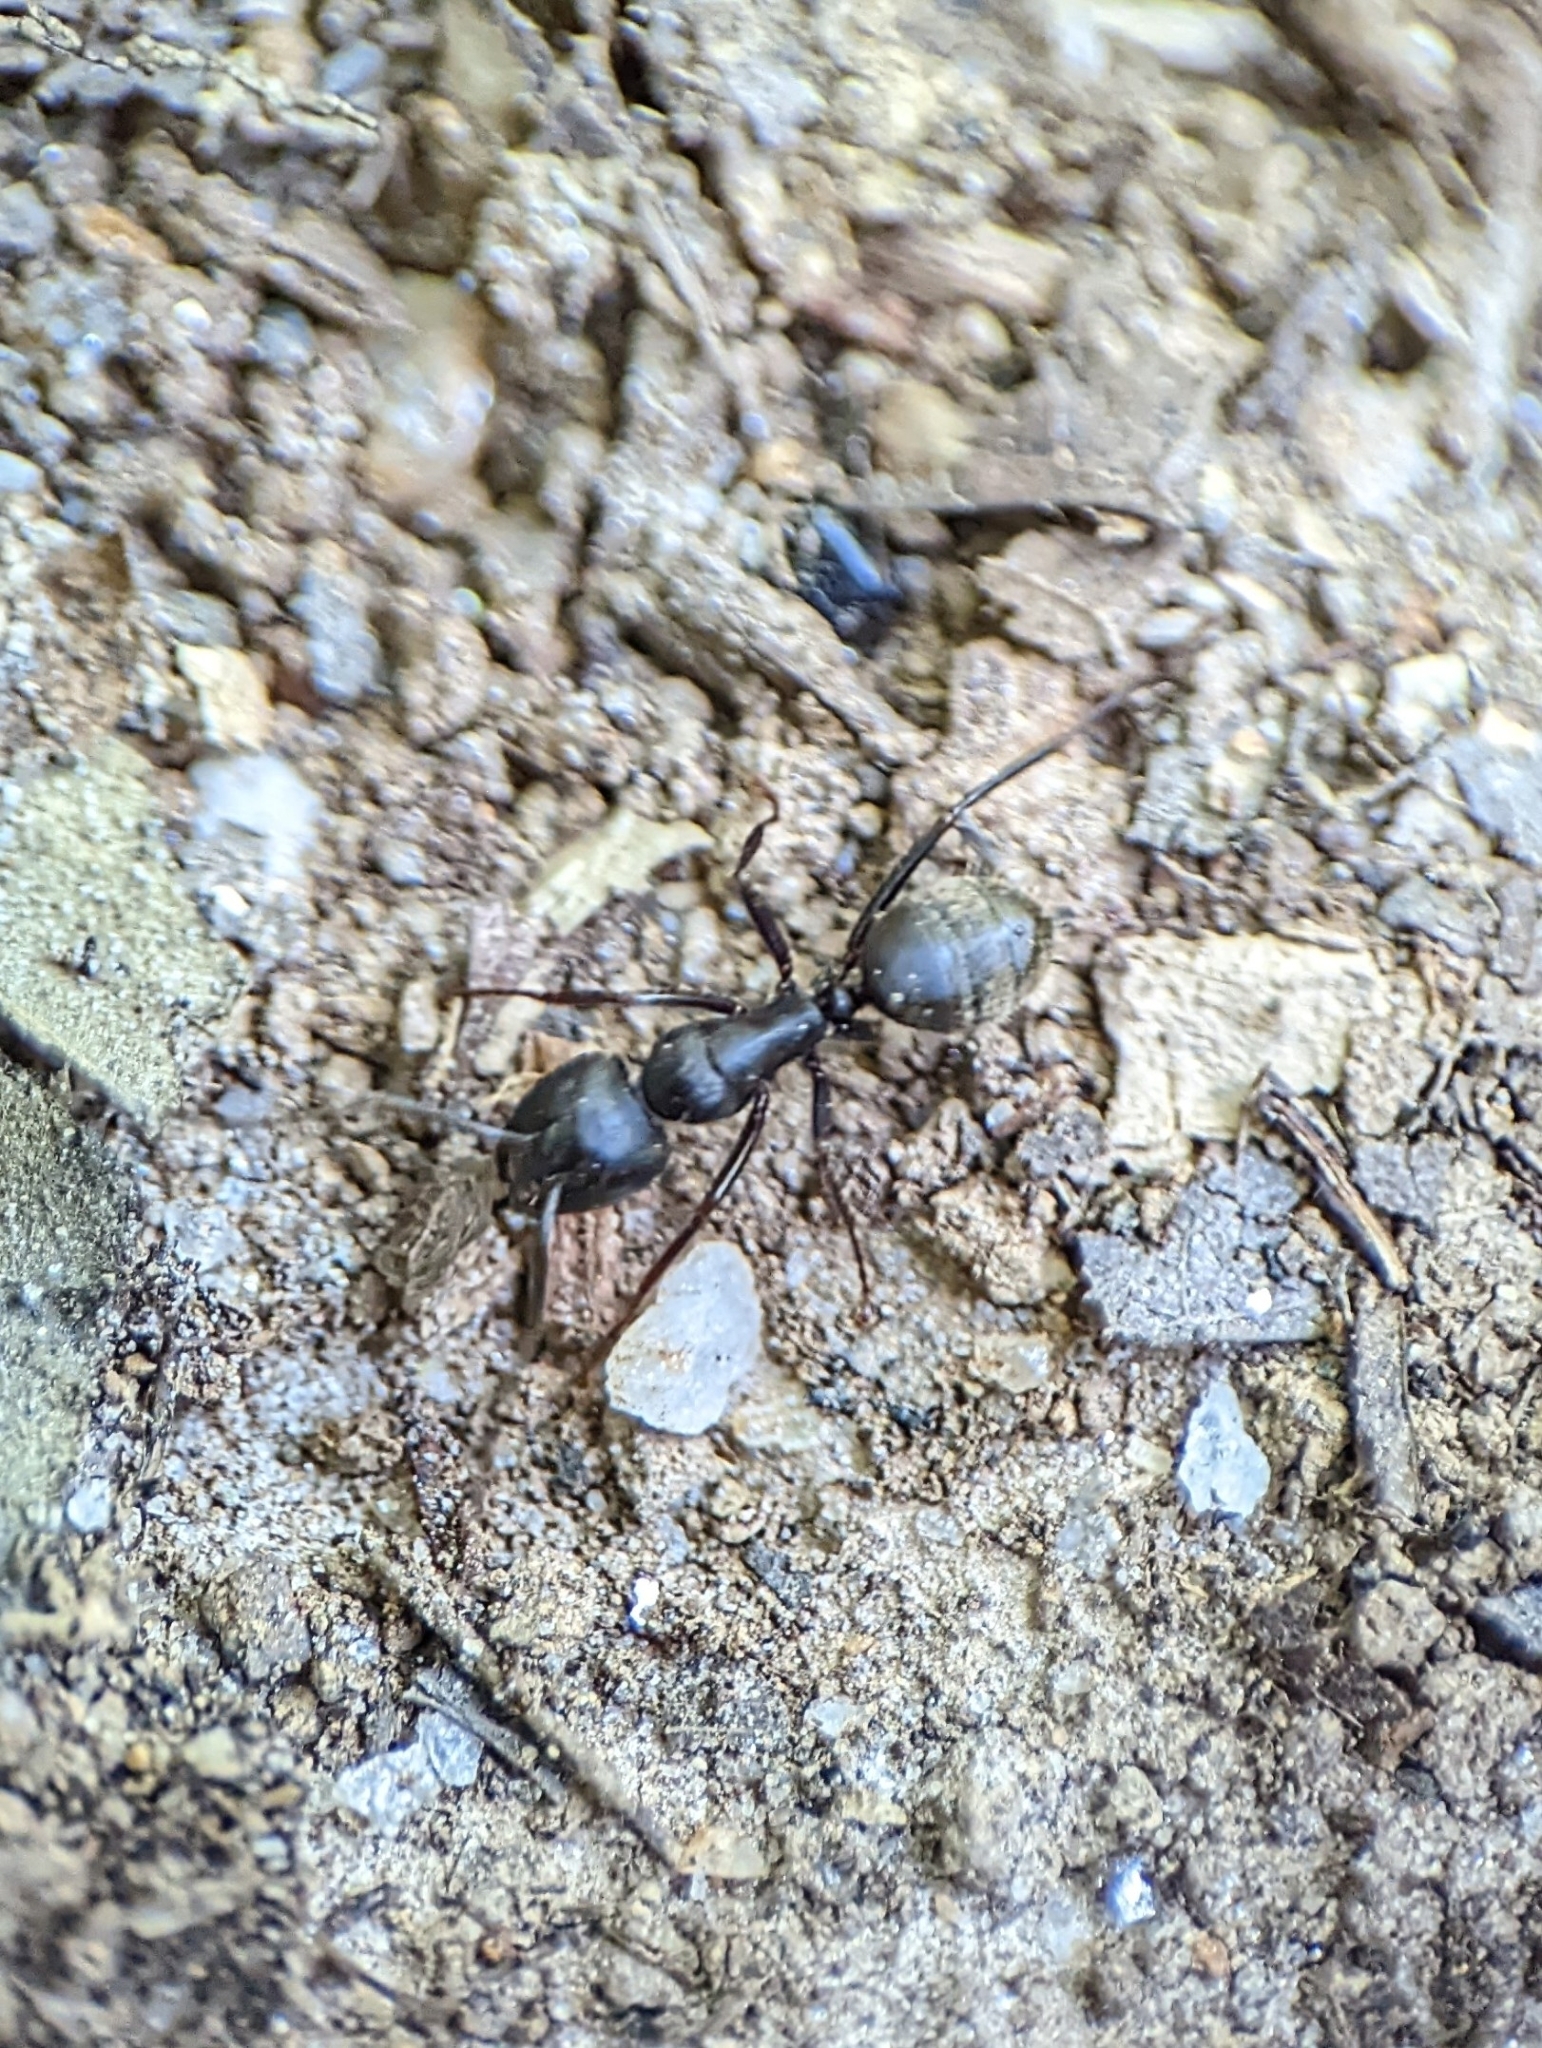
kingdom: Animalia
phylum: Arthropoda
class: Insecta
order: Hymenoptera
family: Formicidae
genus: Camponotus
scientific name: Camponotus pennsylvanicus
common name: Black carpenter ant
